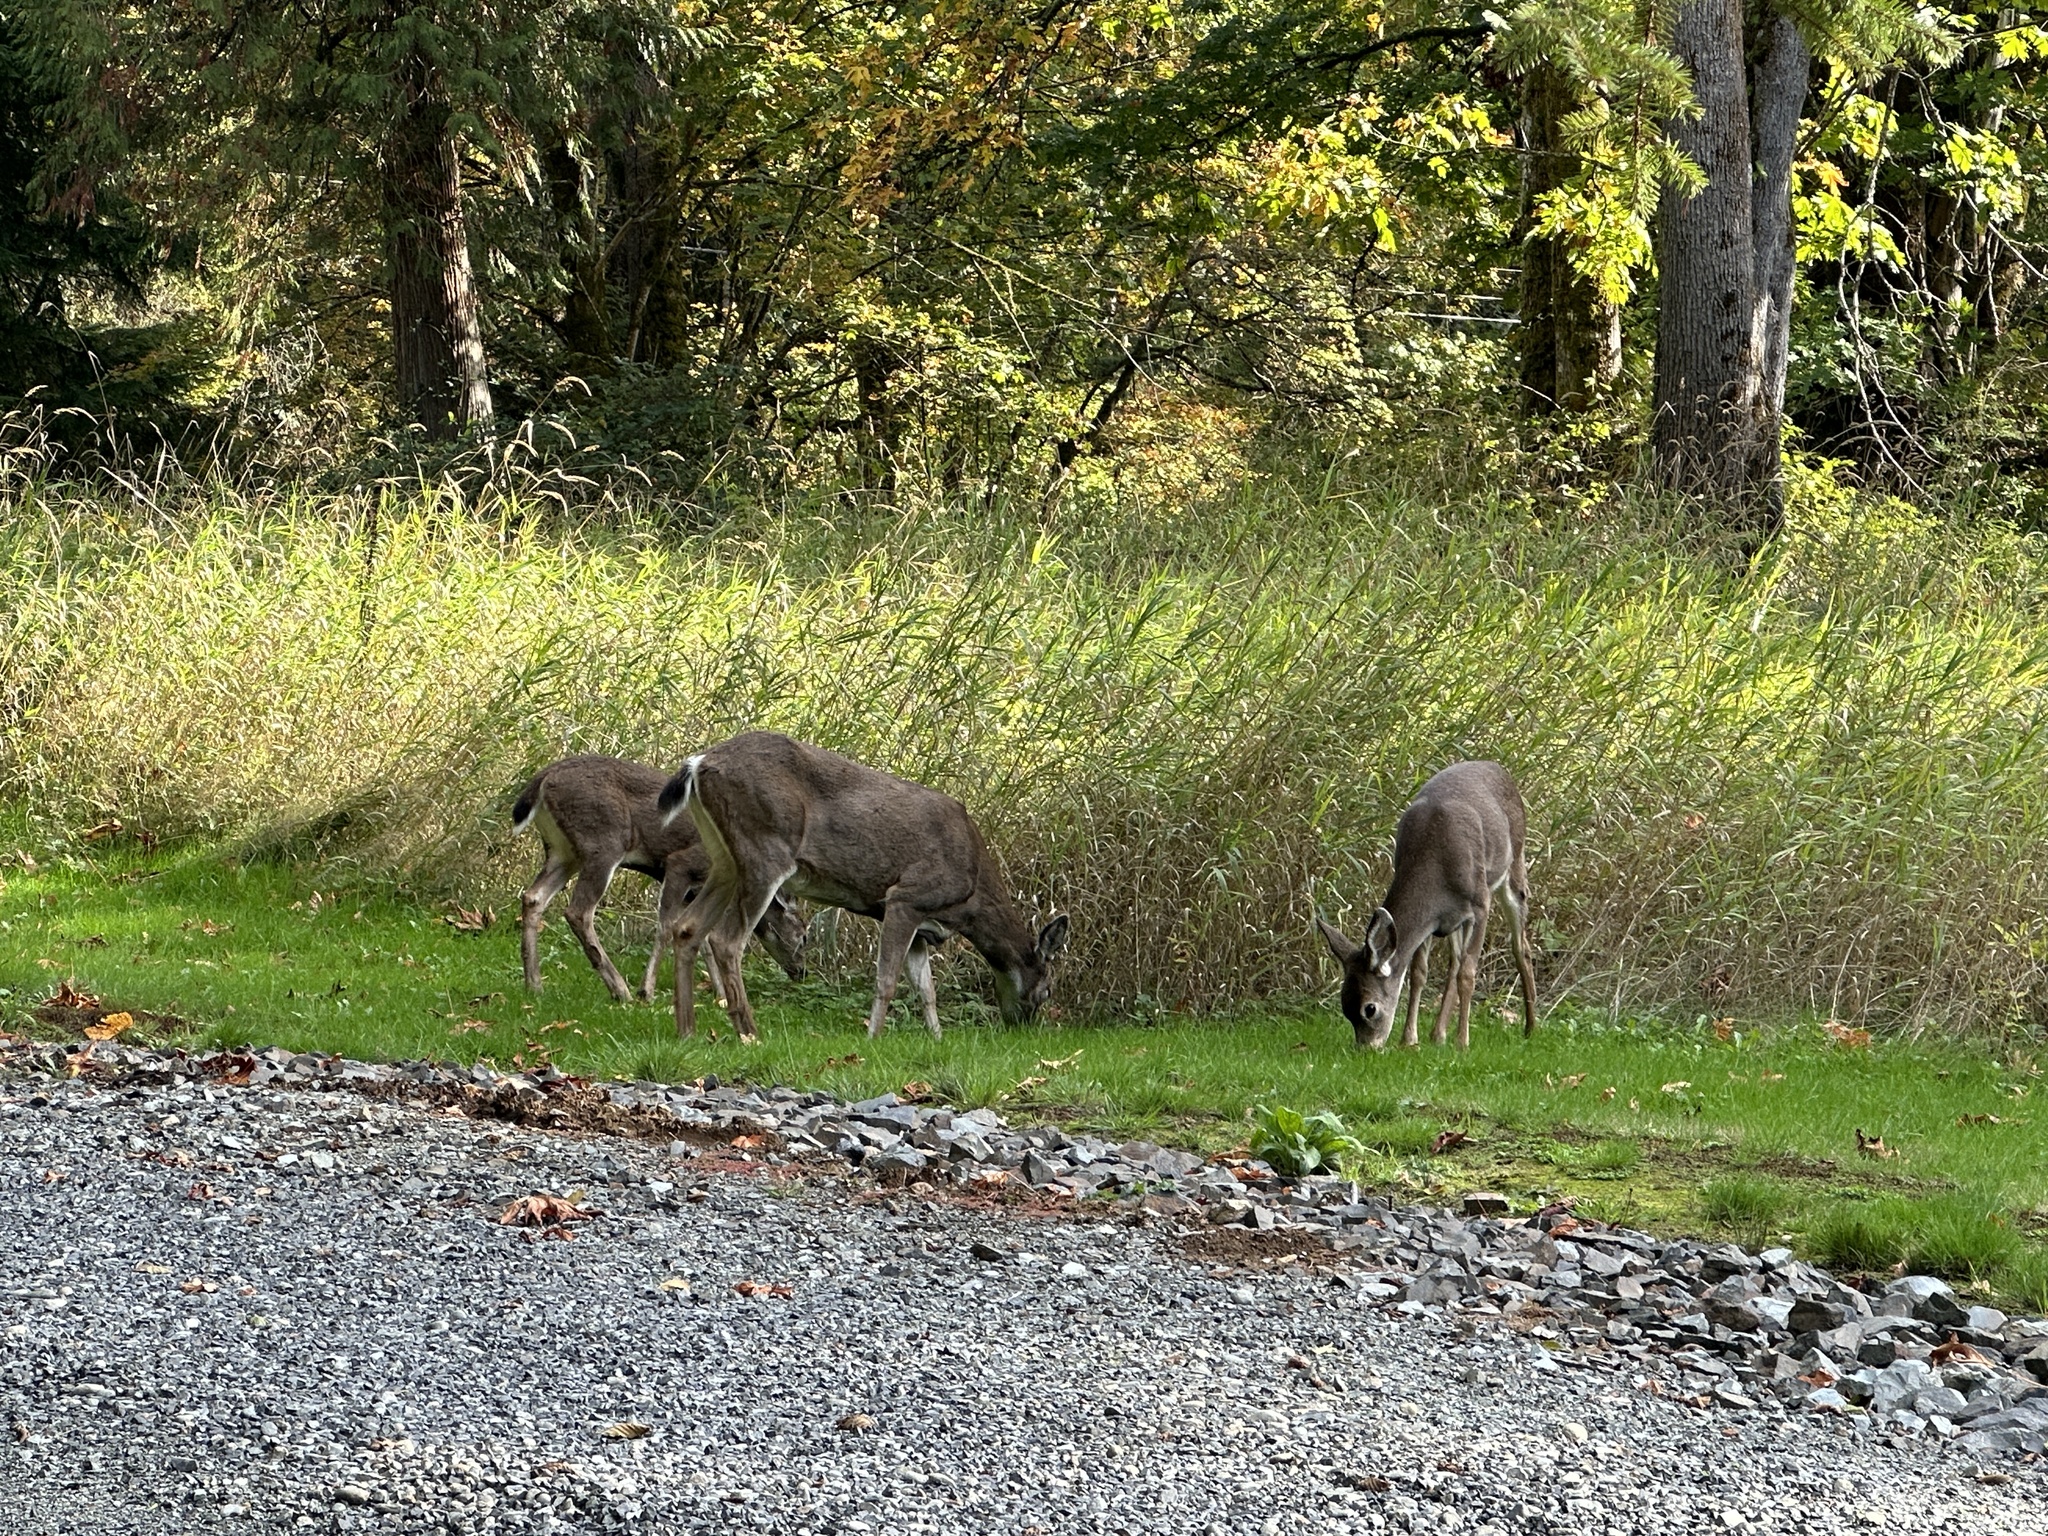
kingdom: Animalia
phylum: Chordata
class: Mammalia
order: Artiodactyla
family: Cervidae
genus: Odocoileus
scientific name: Odocoileus hemionus
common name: Mule deer
